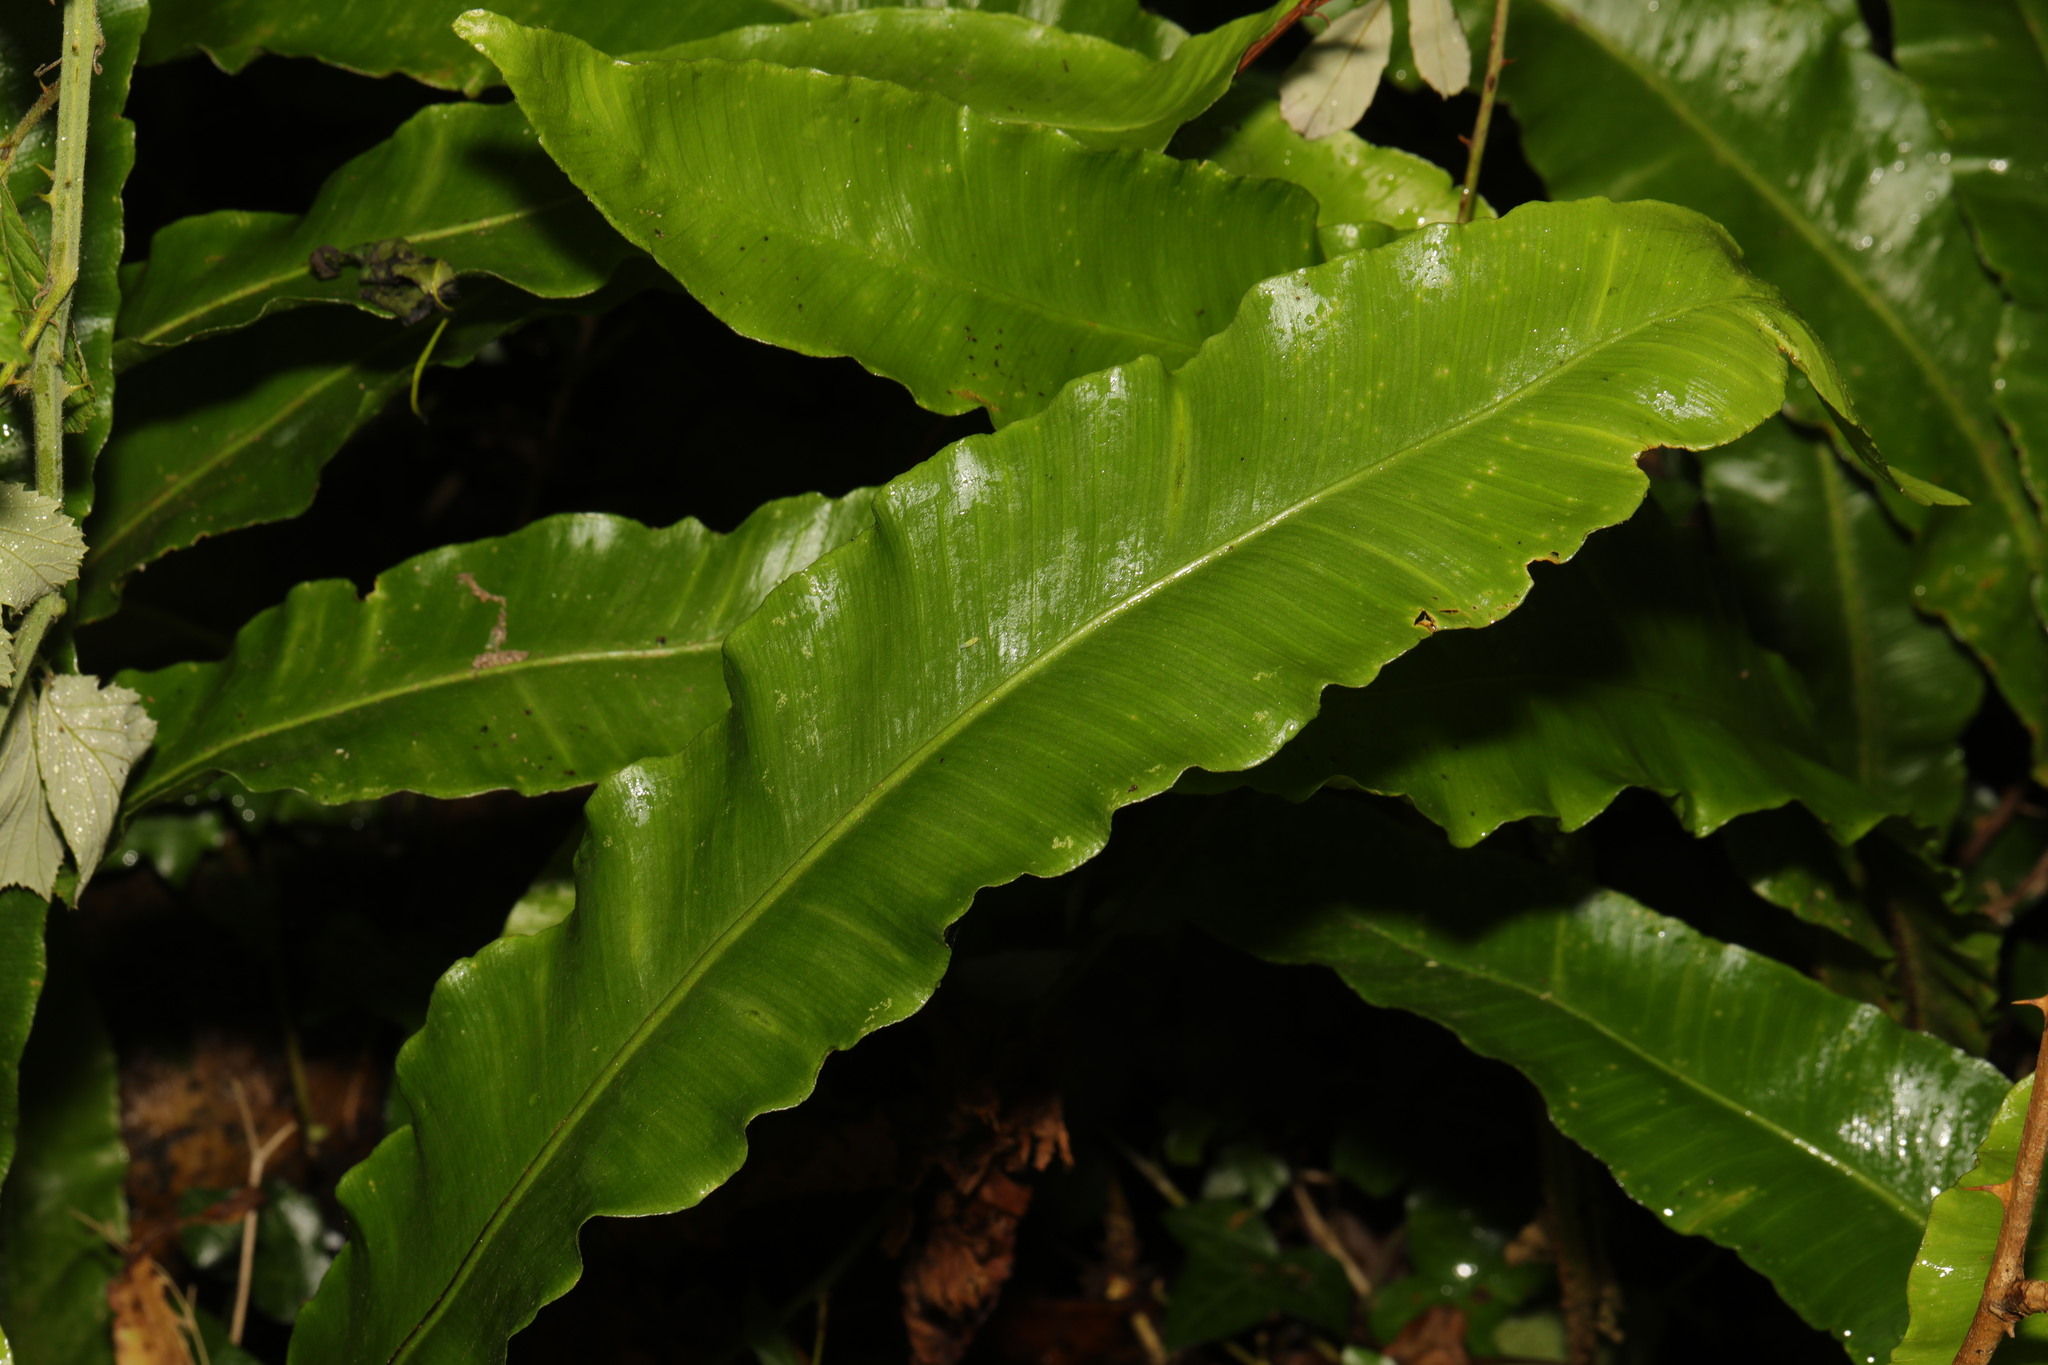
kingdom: Plantae
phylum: Tracheophyta
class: Polypodiopsida
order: Polypodiales
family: Aspleniaceae
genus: Asplenium
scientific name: Asplenium scolopendrium
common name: Hart's-tongue fern
